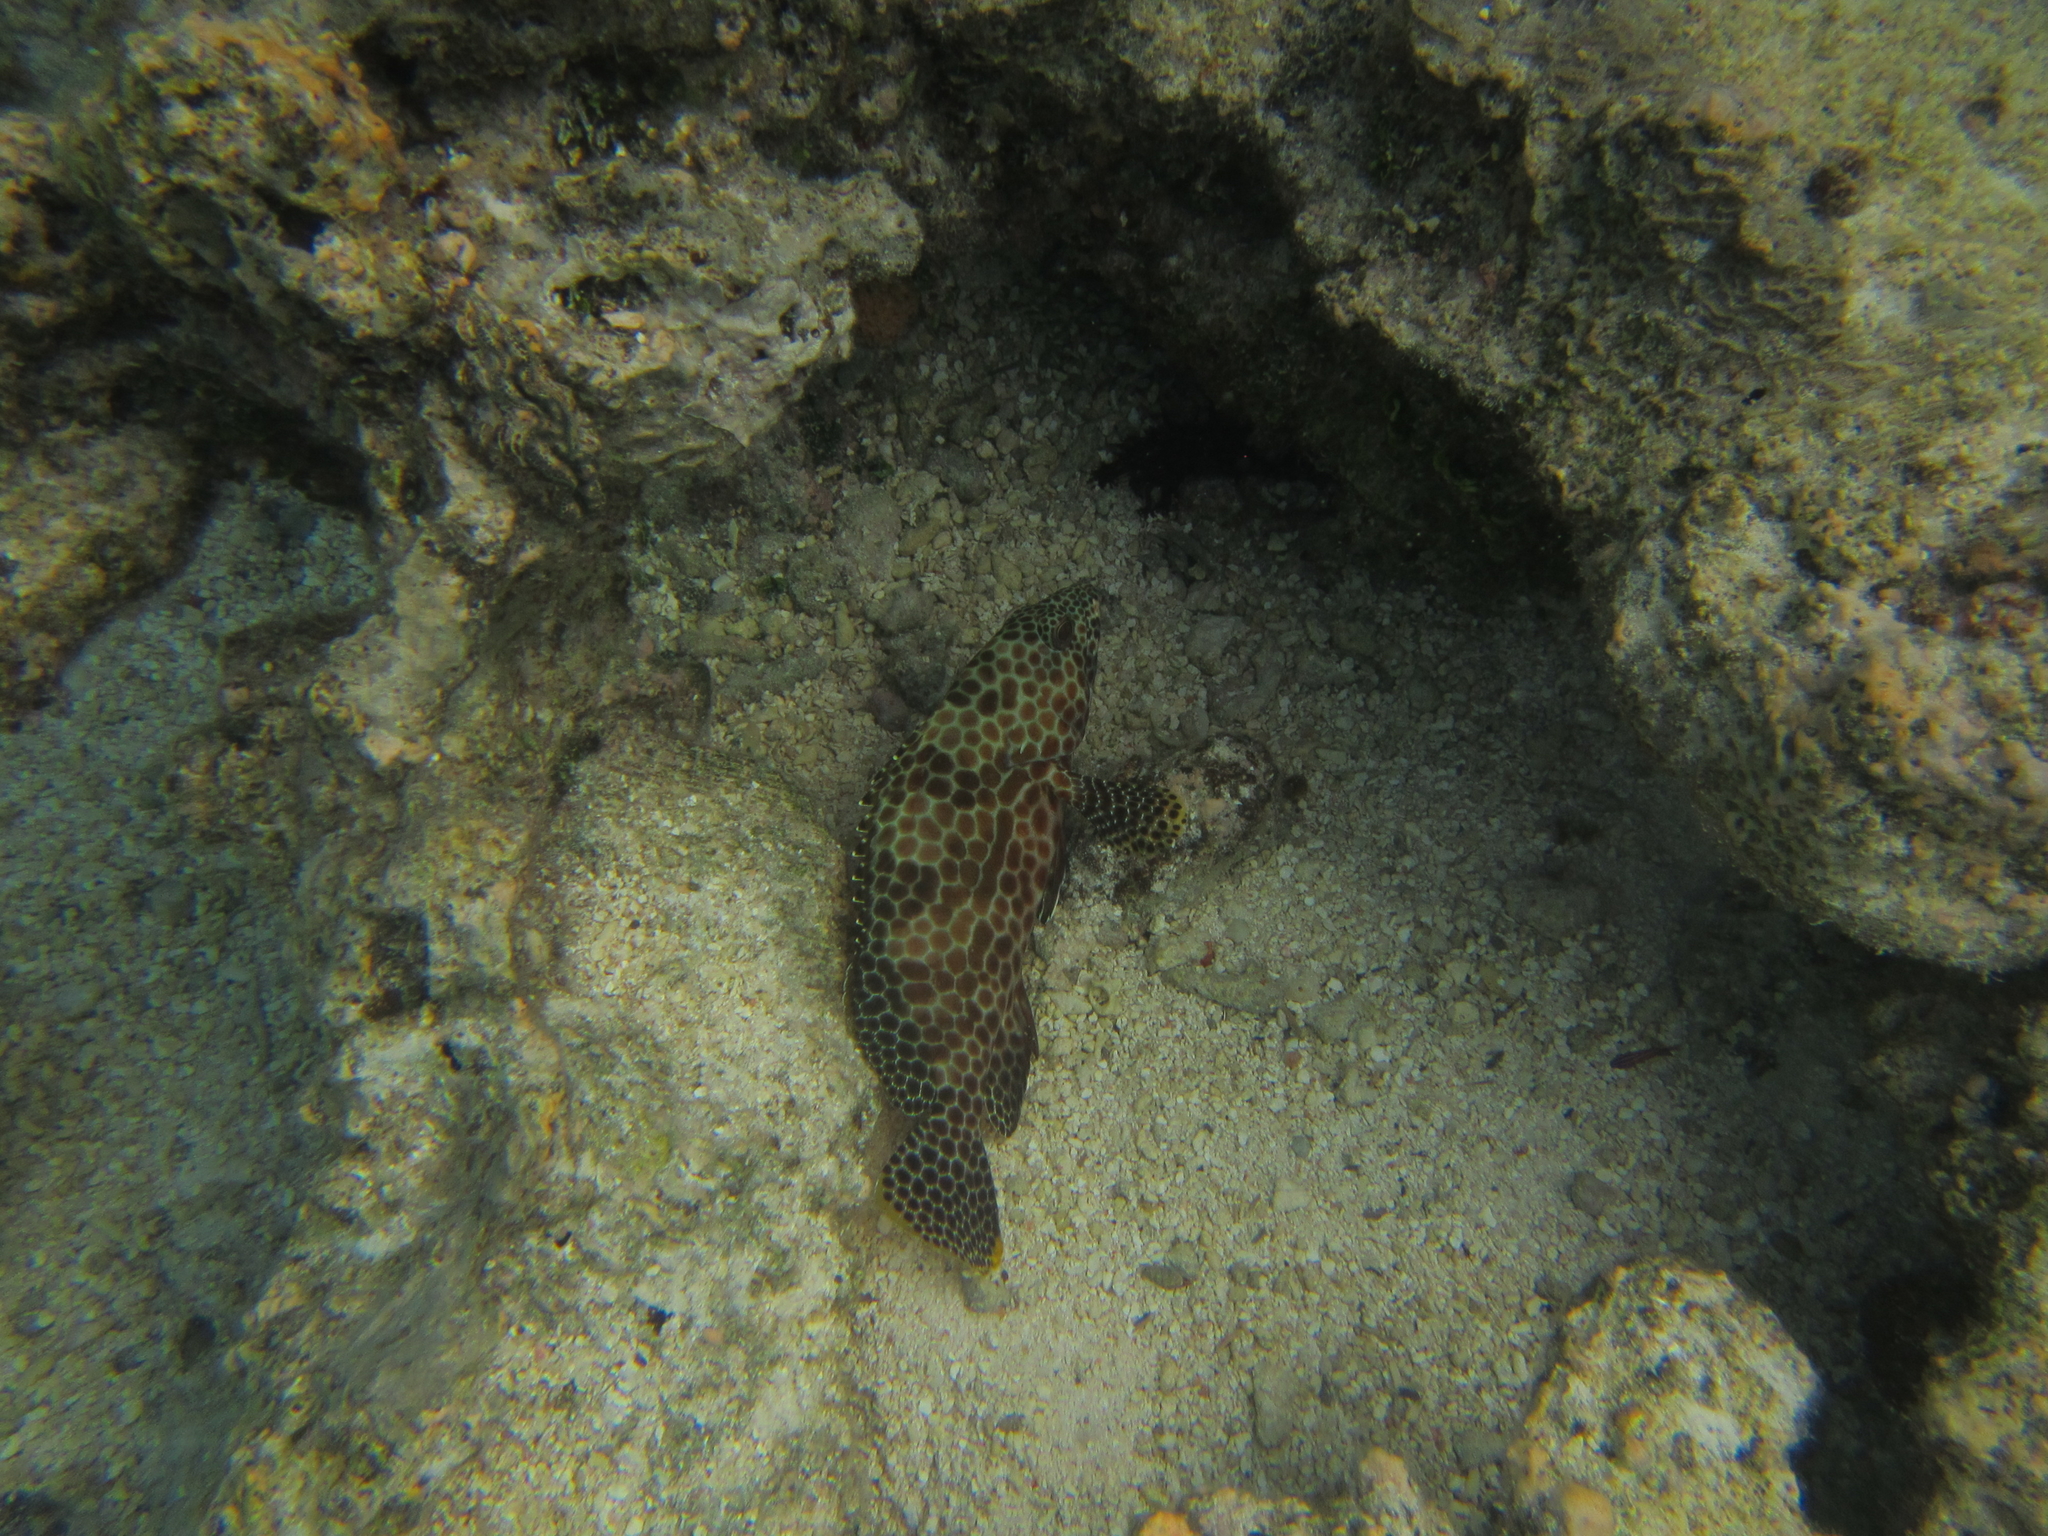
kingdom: Animalia
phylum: Chordata
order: Perciformes
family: Serranidae
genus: Epinephelus
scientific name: Epinephelus spilotoceps
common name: Foursaddle grouper
